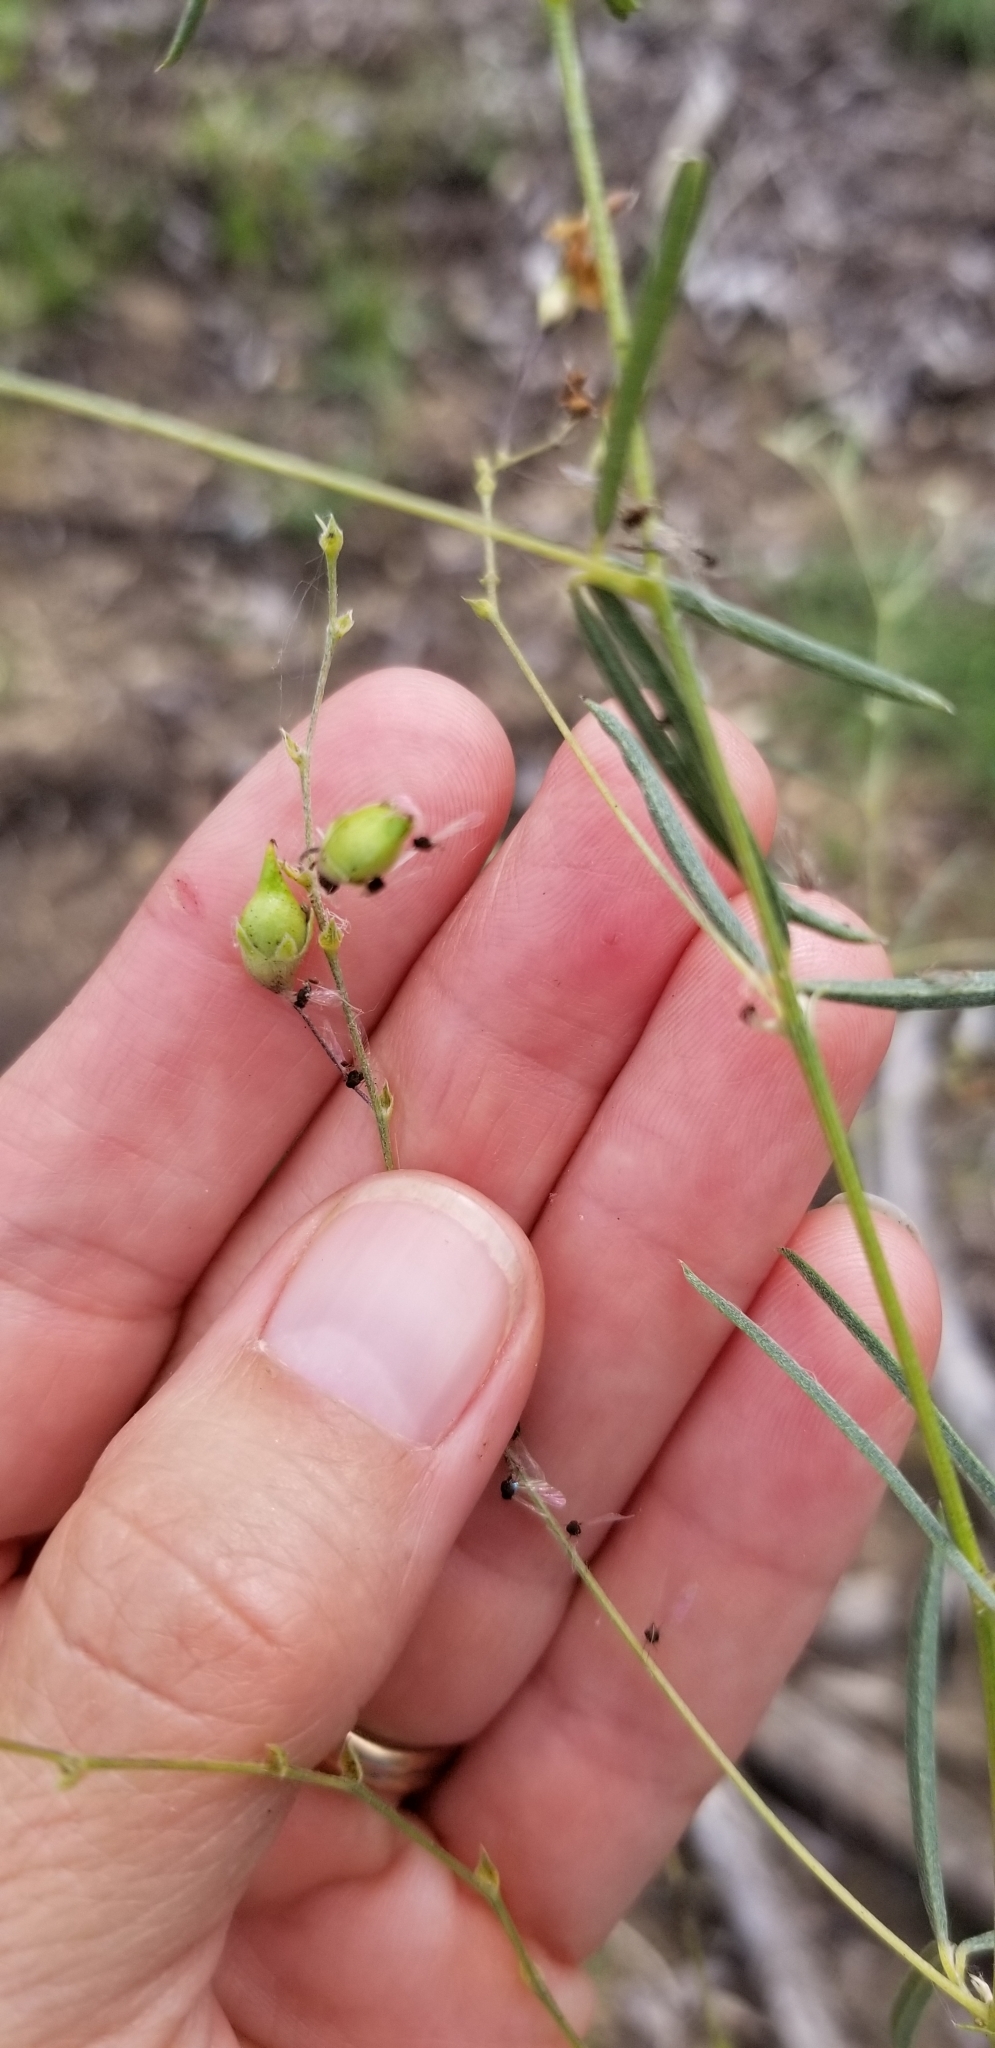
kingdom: Plantae
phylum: Tracheophyta
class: Magnoliopsida
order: Fabales
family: Fabaceae
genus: Pediomelum
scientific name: Pediomelum linearifolium
